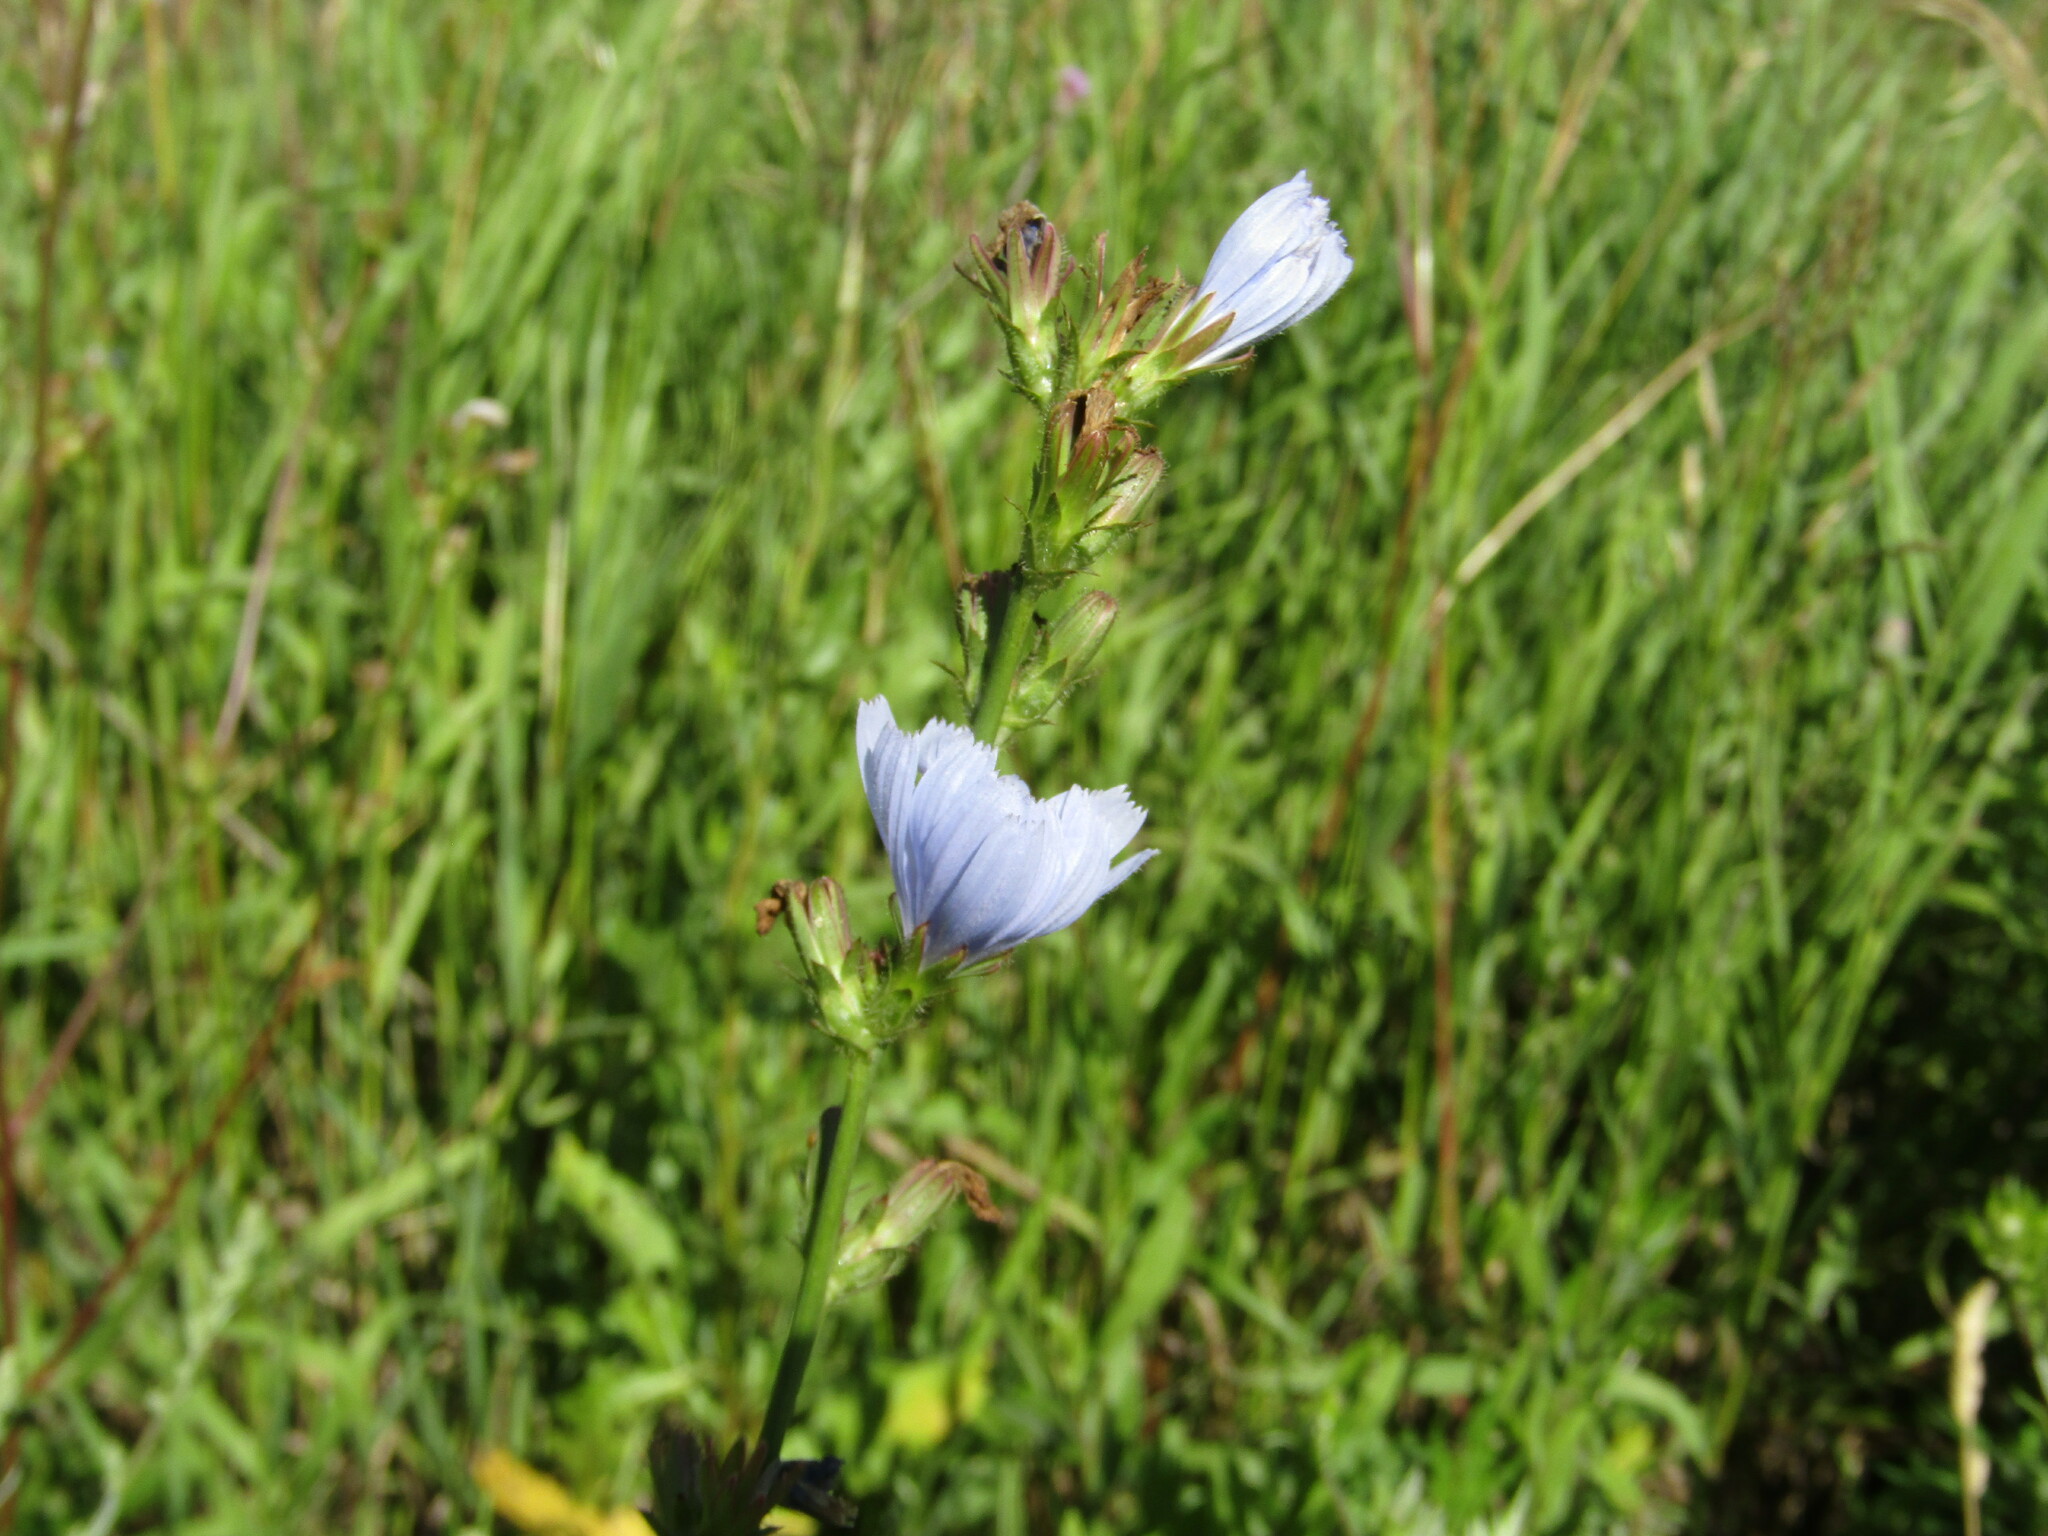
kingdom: Plantae
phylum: Tracheophyta
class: Magnoliopsida
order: Asterales
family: Asteraceae
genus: Cichorium
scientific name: Cichorium intybus
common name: Chicory
